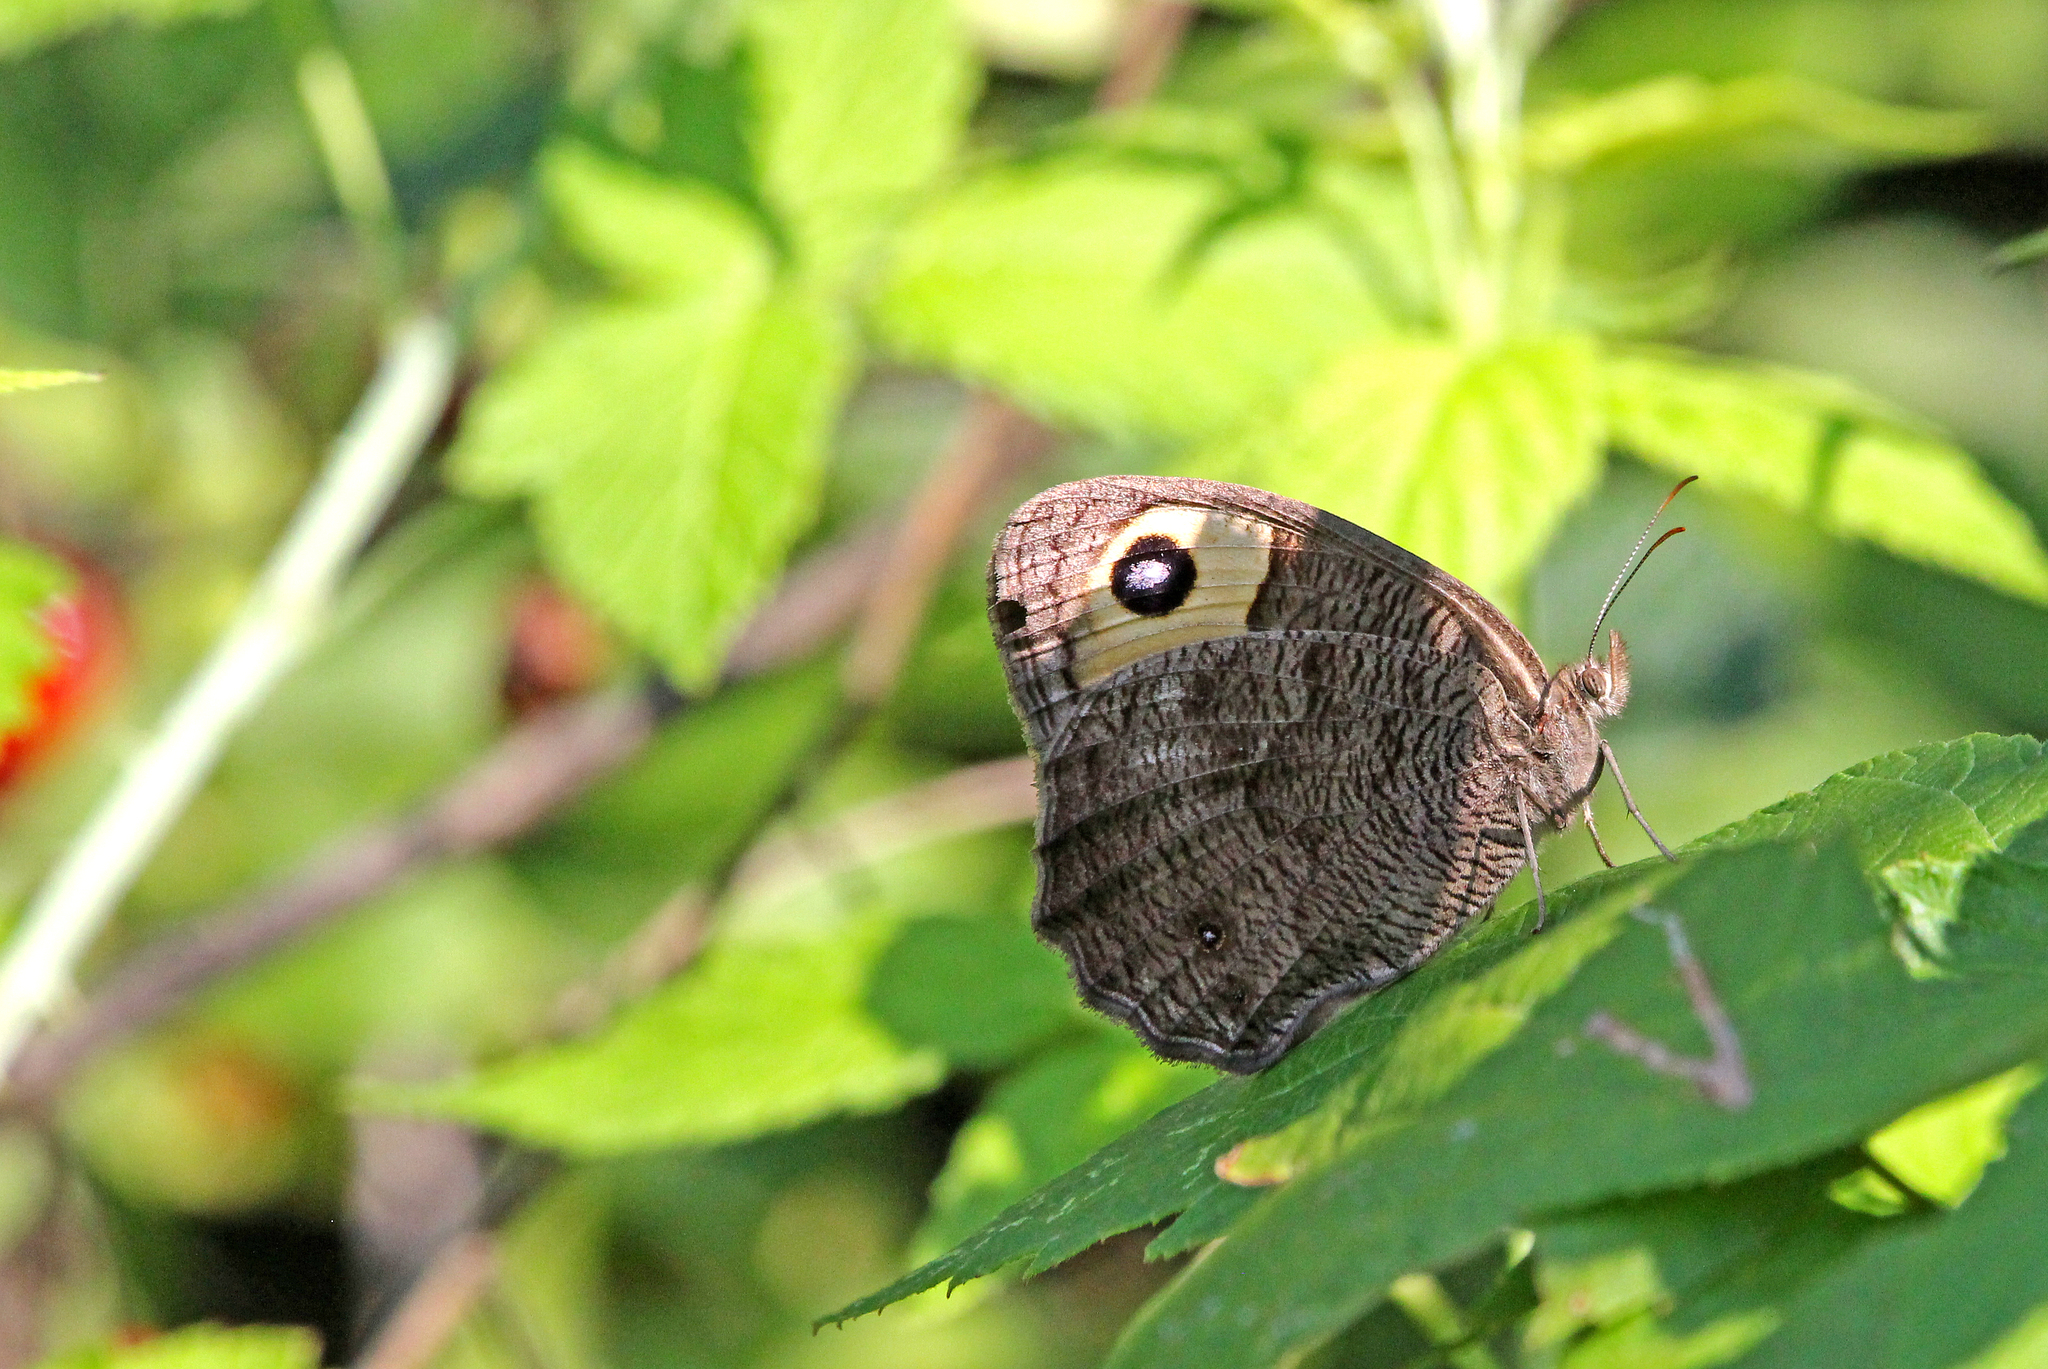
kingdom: Animalia
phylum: Arthropoda
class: Insecta
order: Lepidoptera
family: Nymphalidae
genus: Cercyonis
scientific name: Cercyonis pegala
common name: Common wood-nymph
